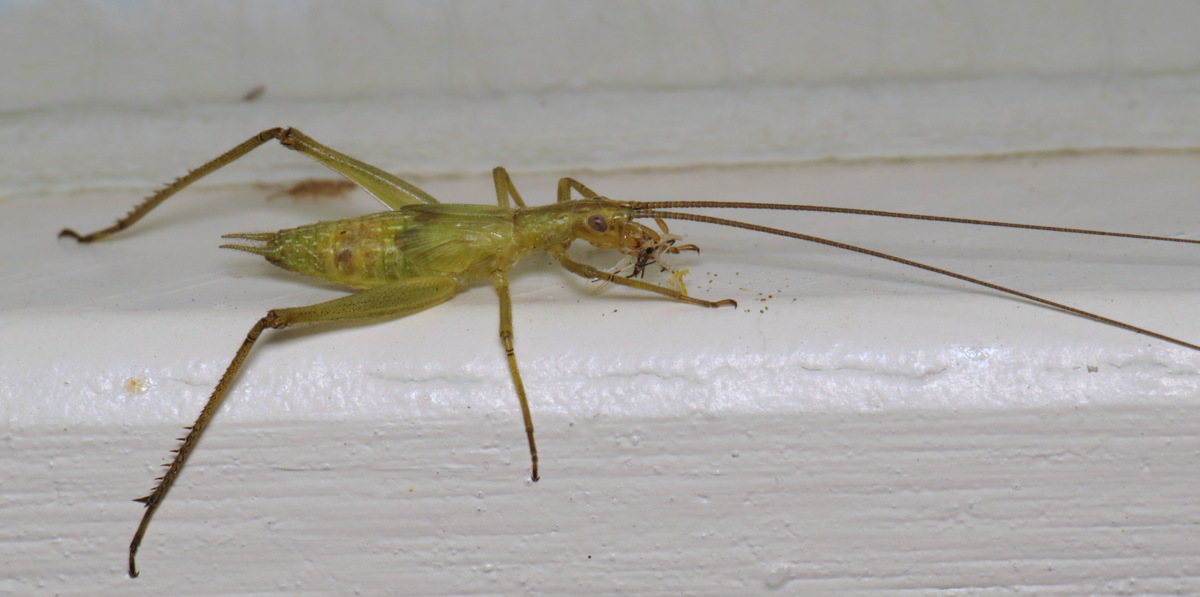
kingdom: Animalia
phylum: Arthropoda
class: Insecta
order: Orthoptera
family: Gryllidae
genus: Oecanthus
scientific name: Oecanthus forbesi
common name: Forbes’s tree cricket
